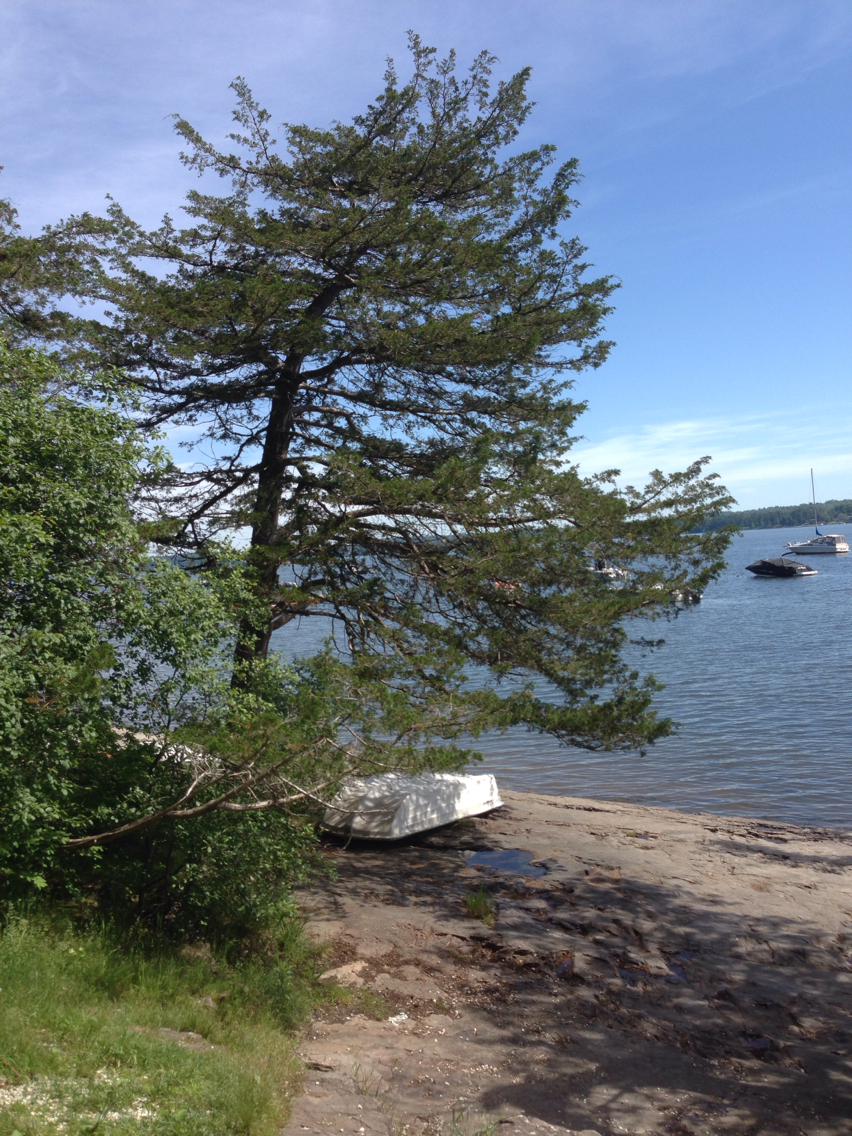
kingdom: Plantae
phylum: Tracheophyta
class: Pinopsida
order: Pinales
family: Cupressaceae
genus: Juniperus
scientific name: Juniperus virginiana
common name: Red juniper
